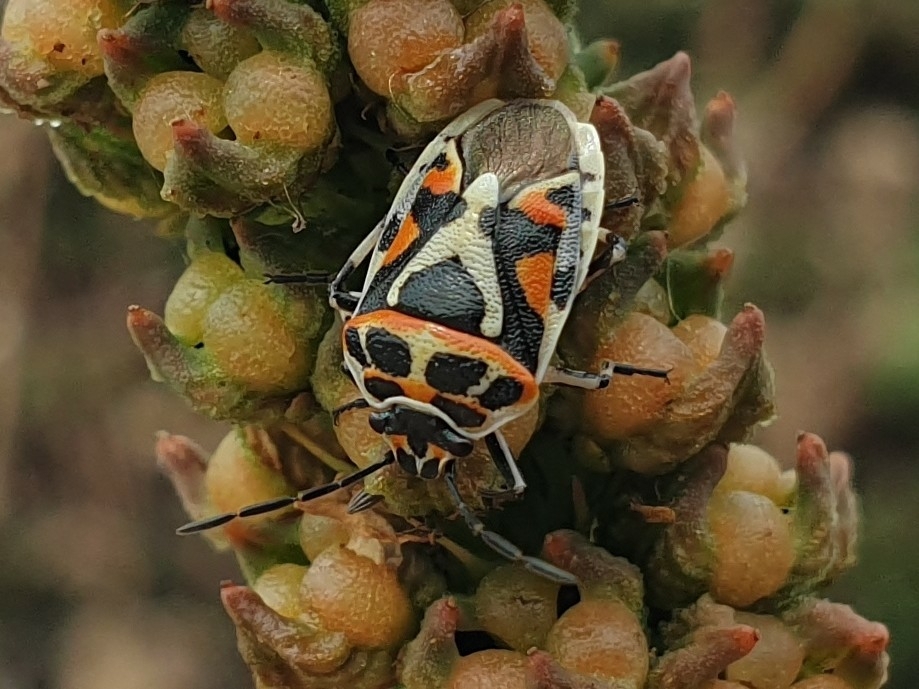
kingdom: Animalia
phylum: Arthropoda
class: Insecta
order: Hemiptera
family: Pentatomidae
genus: Eurydema
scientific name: Eurydema ornata
